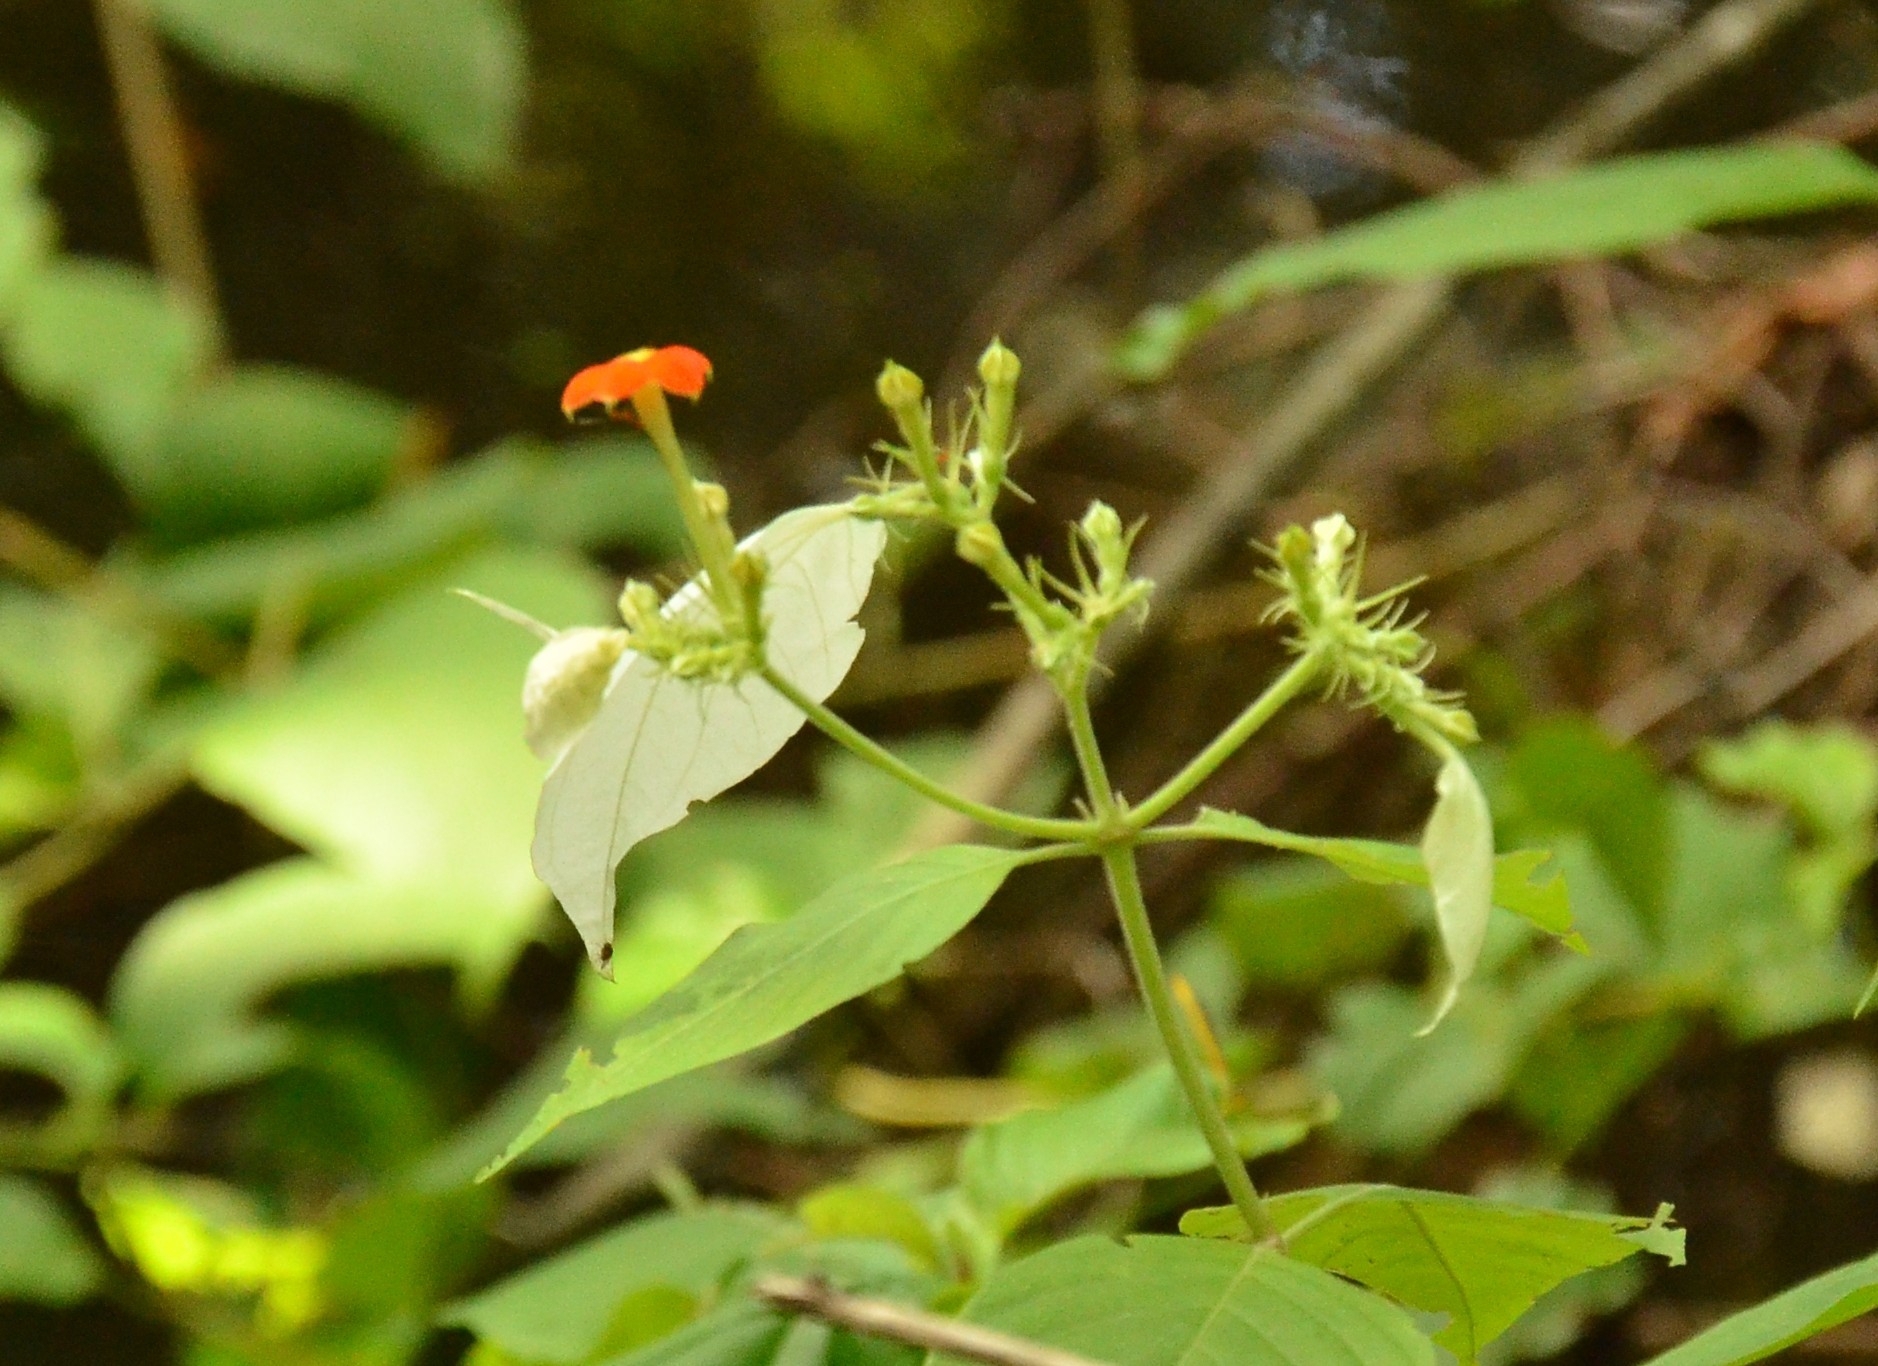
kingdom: Plantae
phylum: Tracheophyta
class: Magnoliopsida
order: Gentianales
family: Rubiaceae
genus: Mussaenda
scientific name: Mussaenda frondosa
